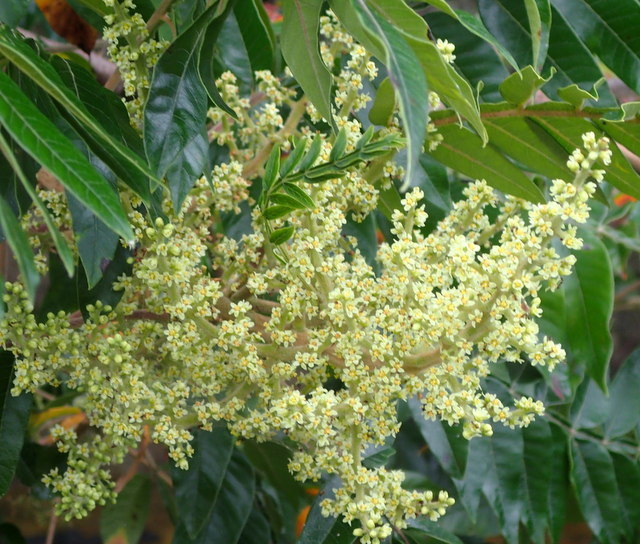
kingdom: Plantae
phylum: Tracheophyta
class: Magnoliopsida
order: Sapindales
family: Anacardiaceae
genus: Rhus
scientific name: Rhus copallina
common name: Shining sumac
